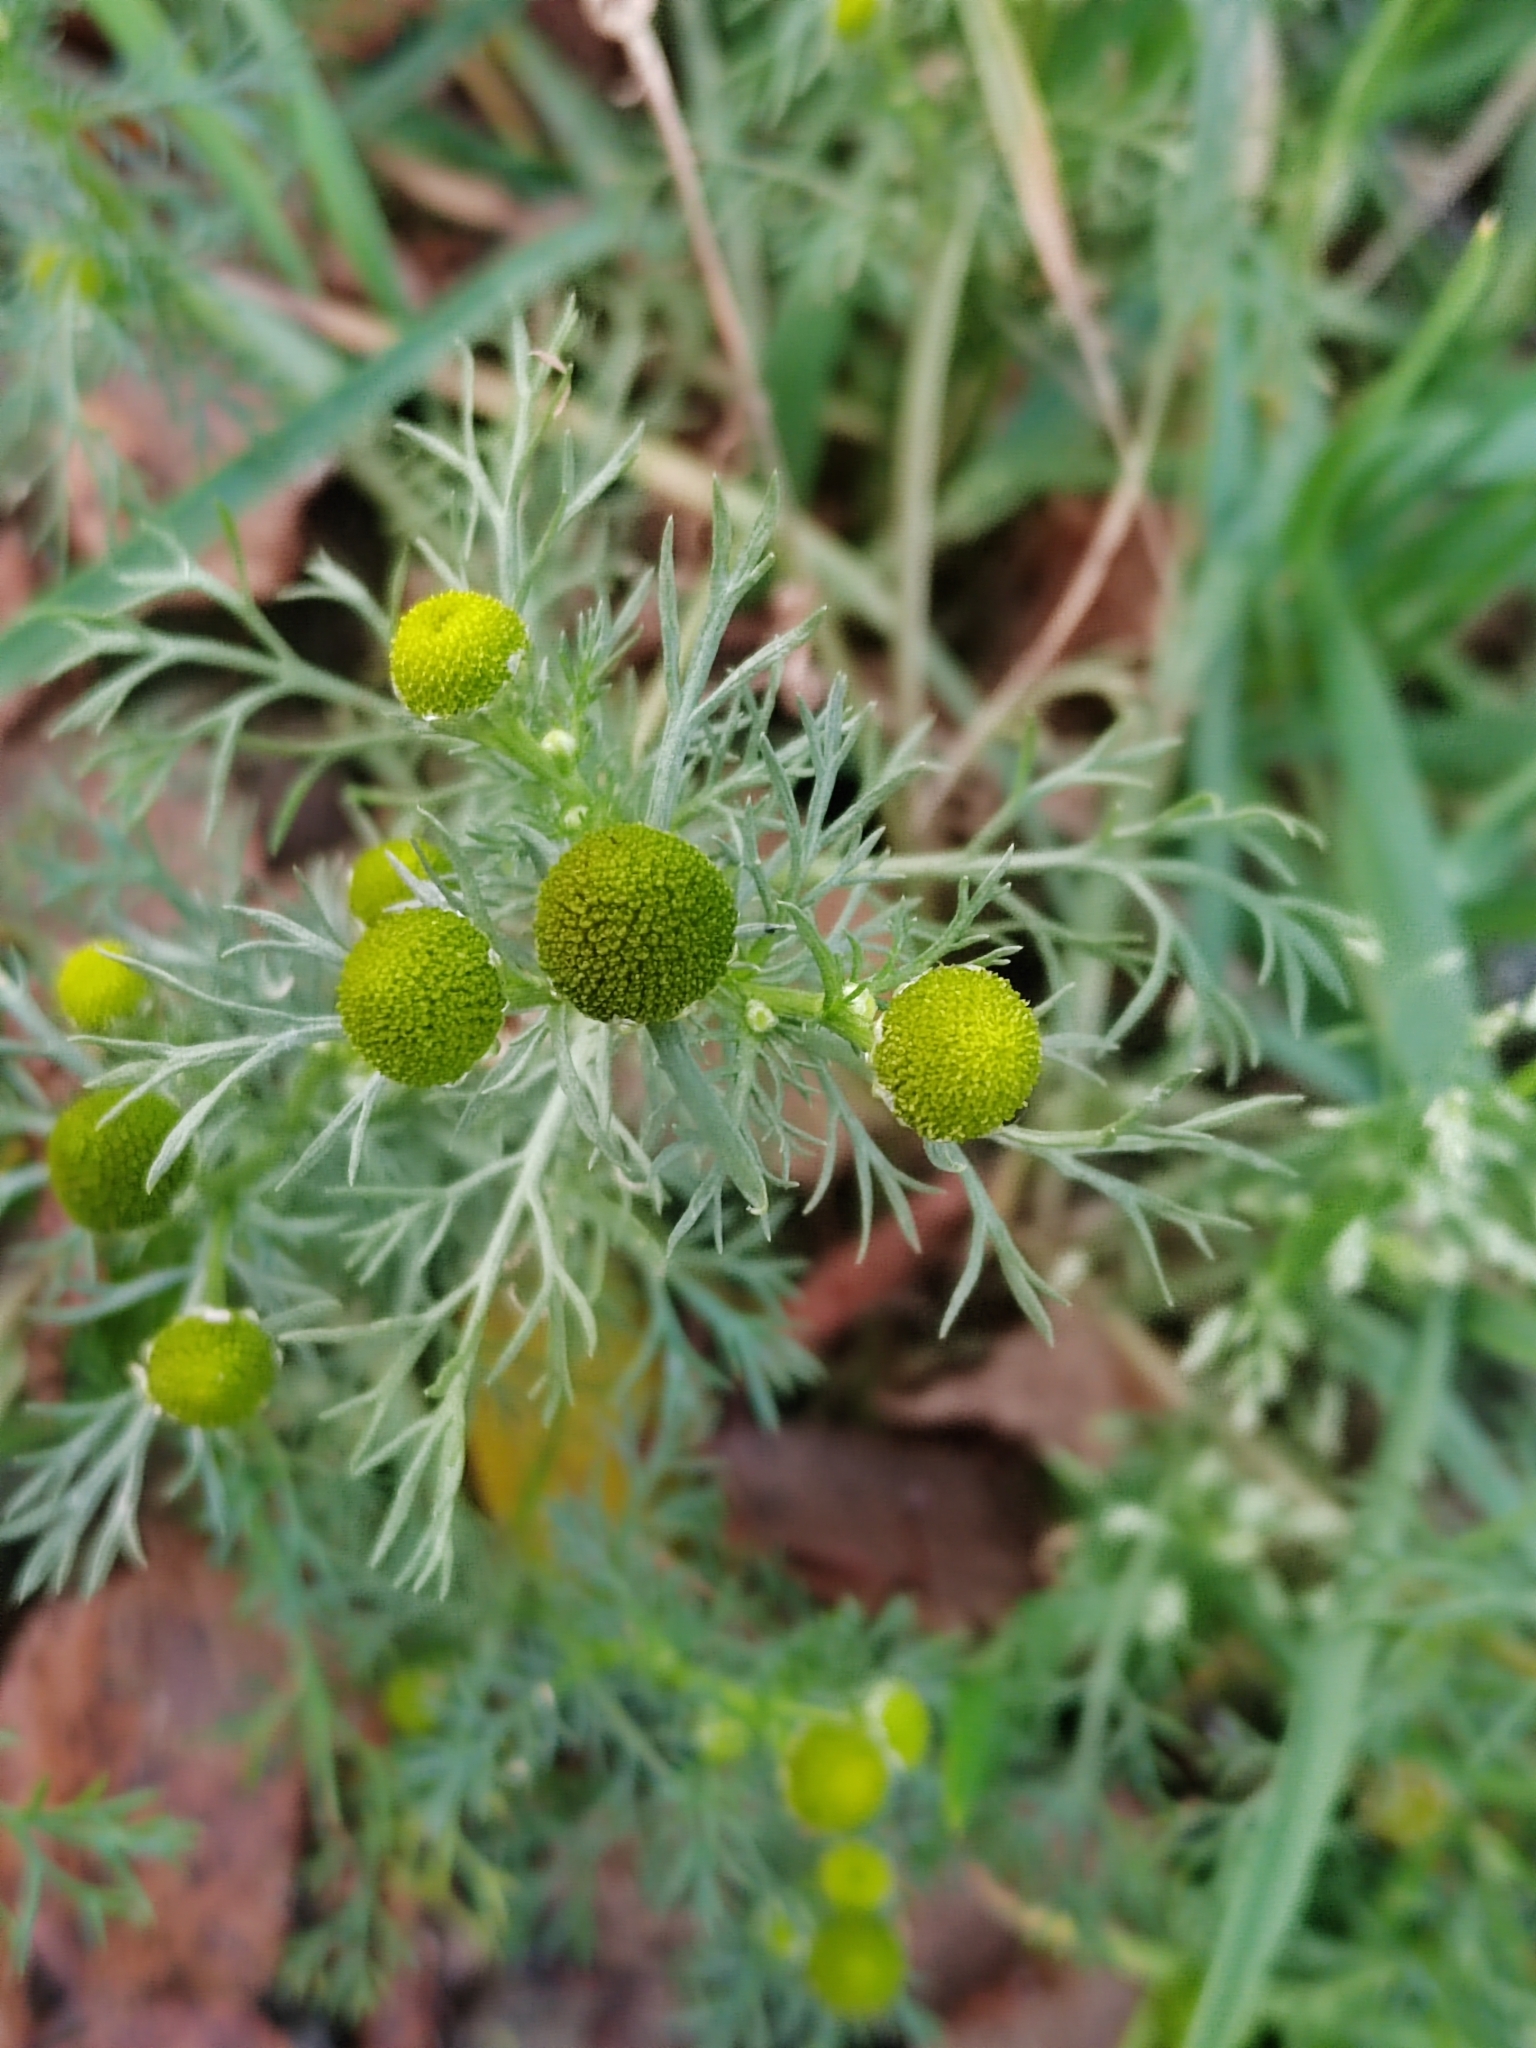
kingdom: Plantae
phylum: Tracheophyta
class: Magnoliopsida
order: Asterales
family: Asteraceae
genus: Matricaria
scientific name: Matricaria discoidea
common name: Disc mayweed
